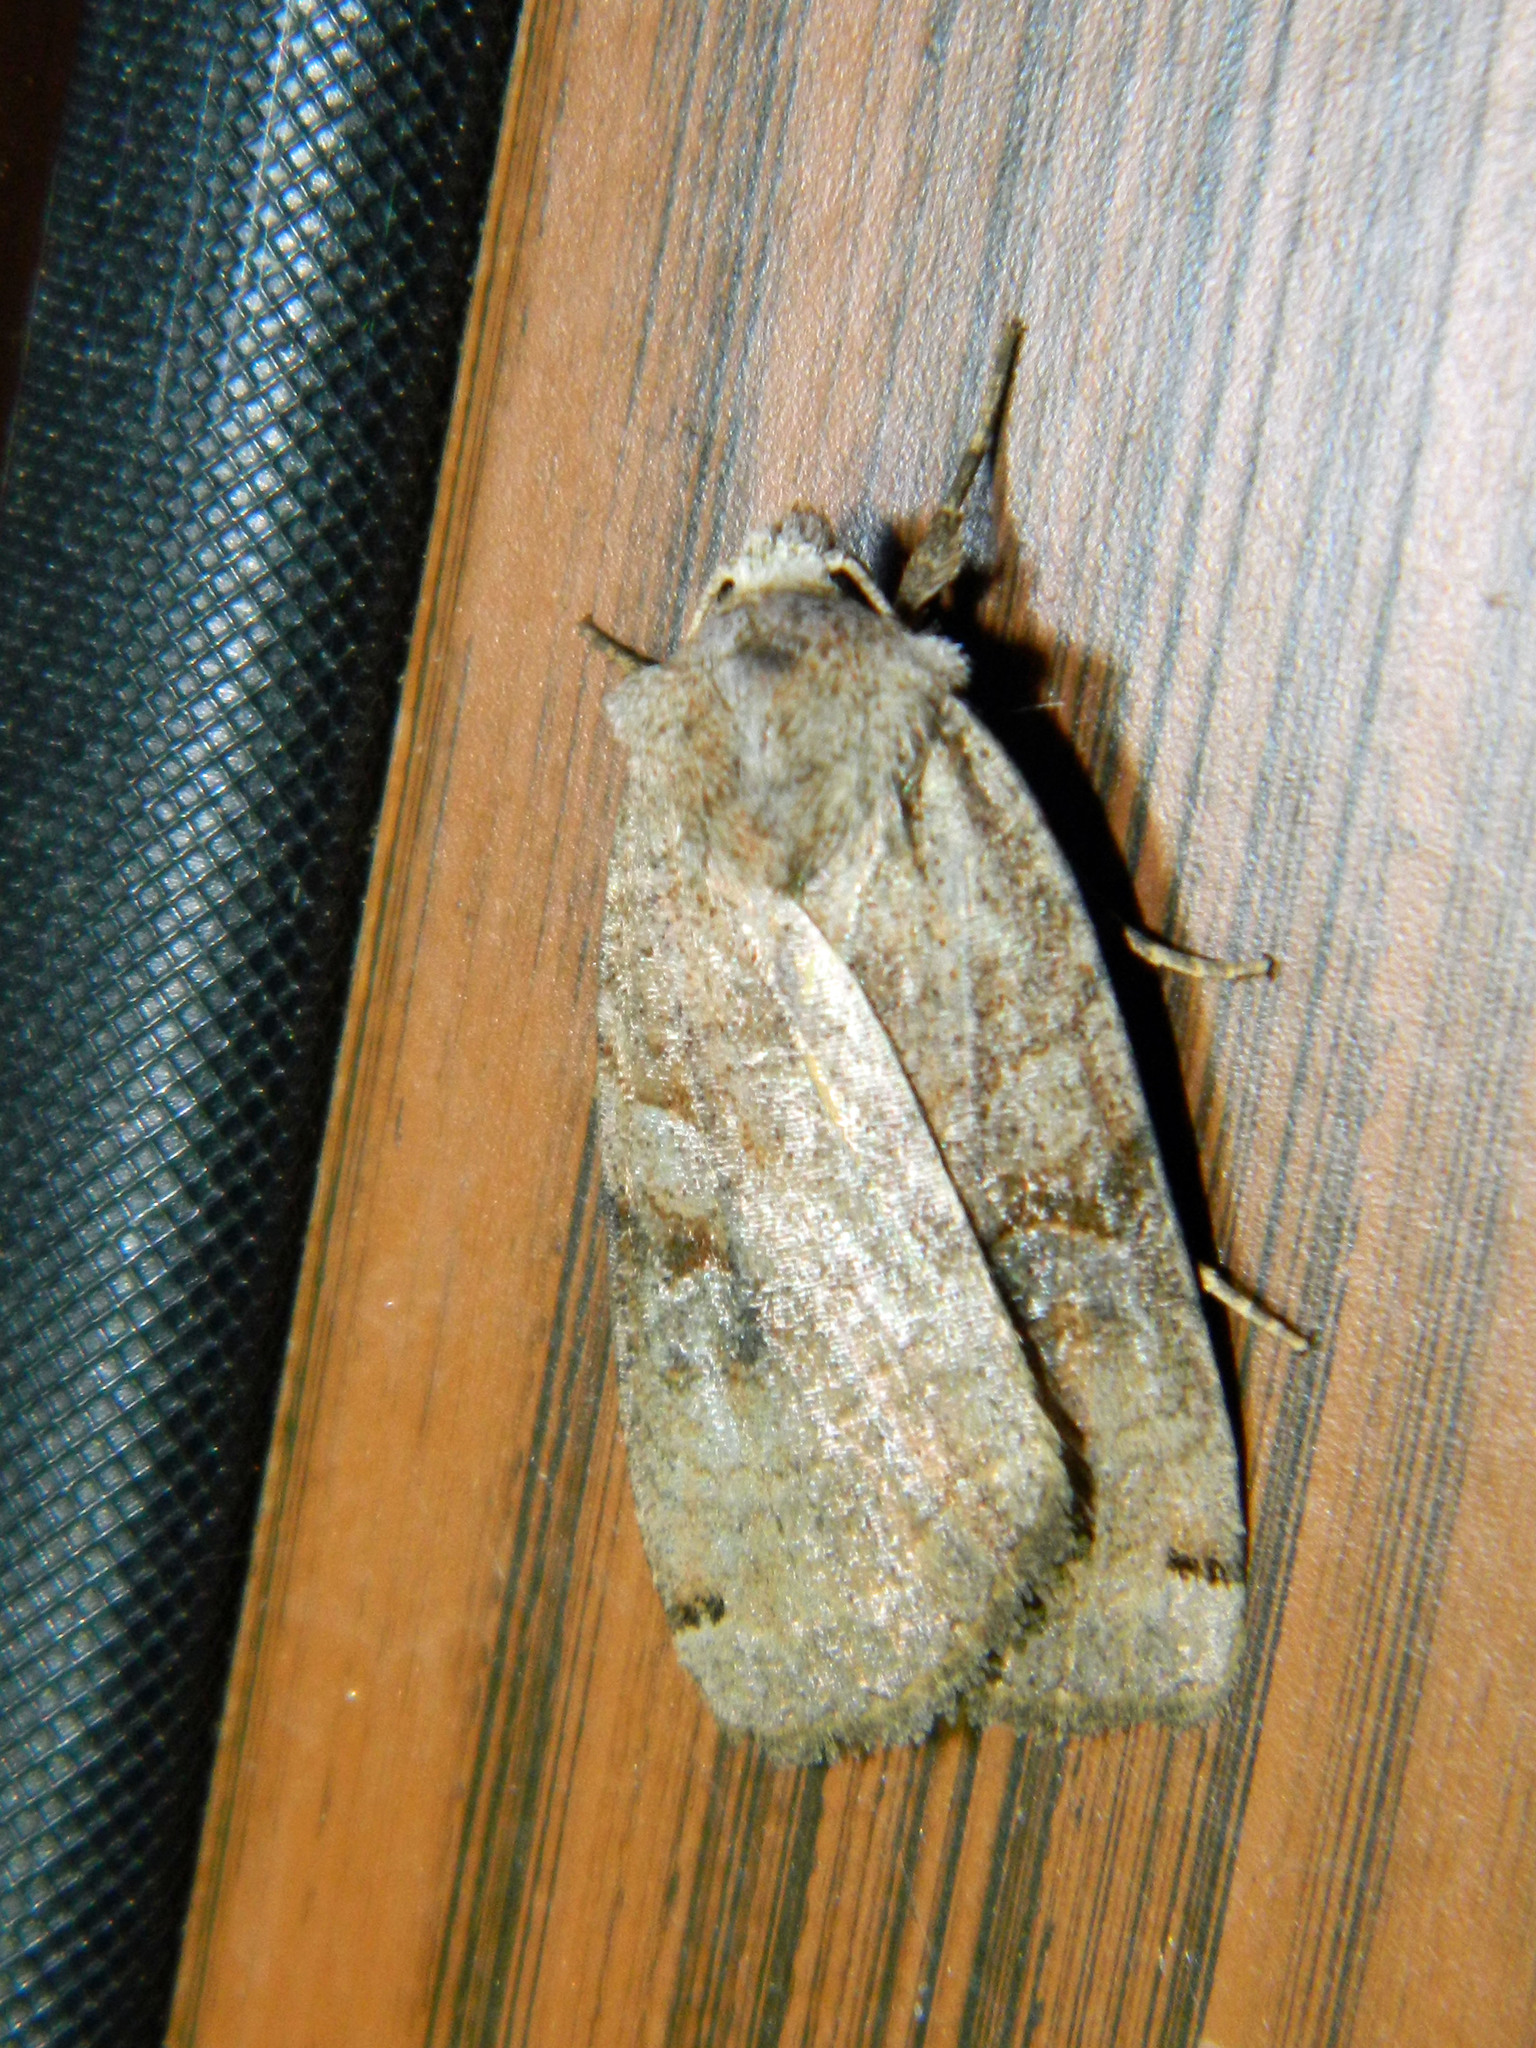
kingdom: Animalia
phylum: Arthropoda
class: Insecta
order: Lepidoptera
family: Noctuidae
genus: Xestia
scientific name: Xestia smithii
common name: Smith's dart
